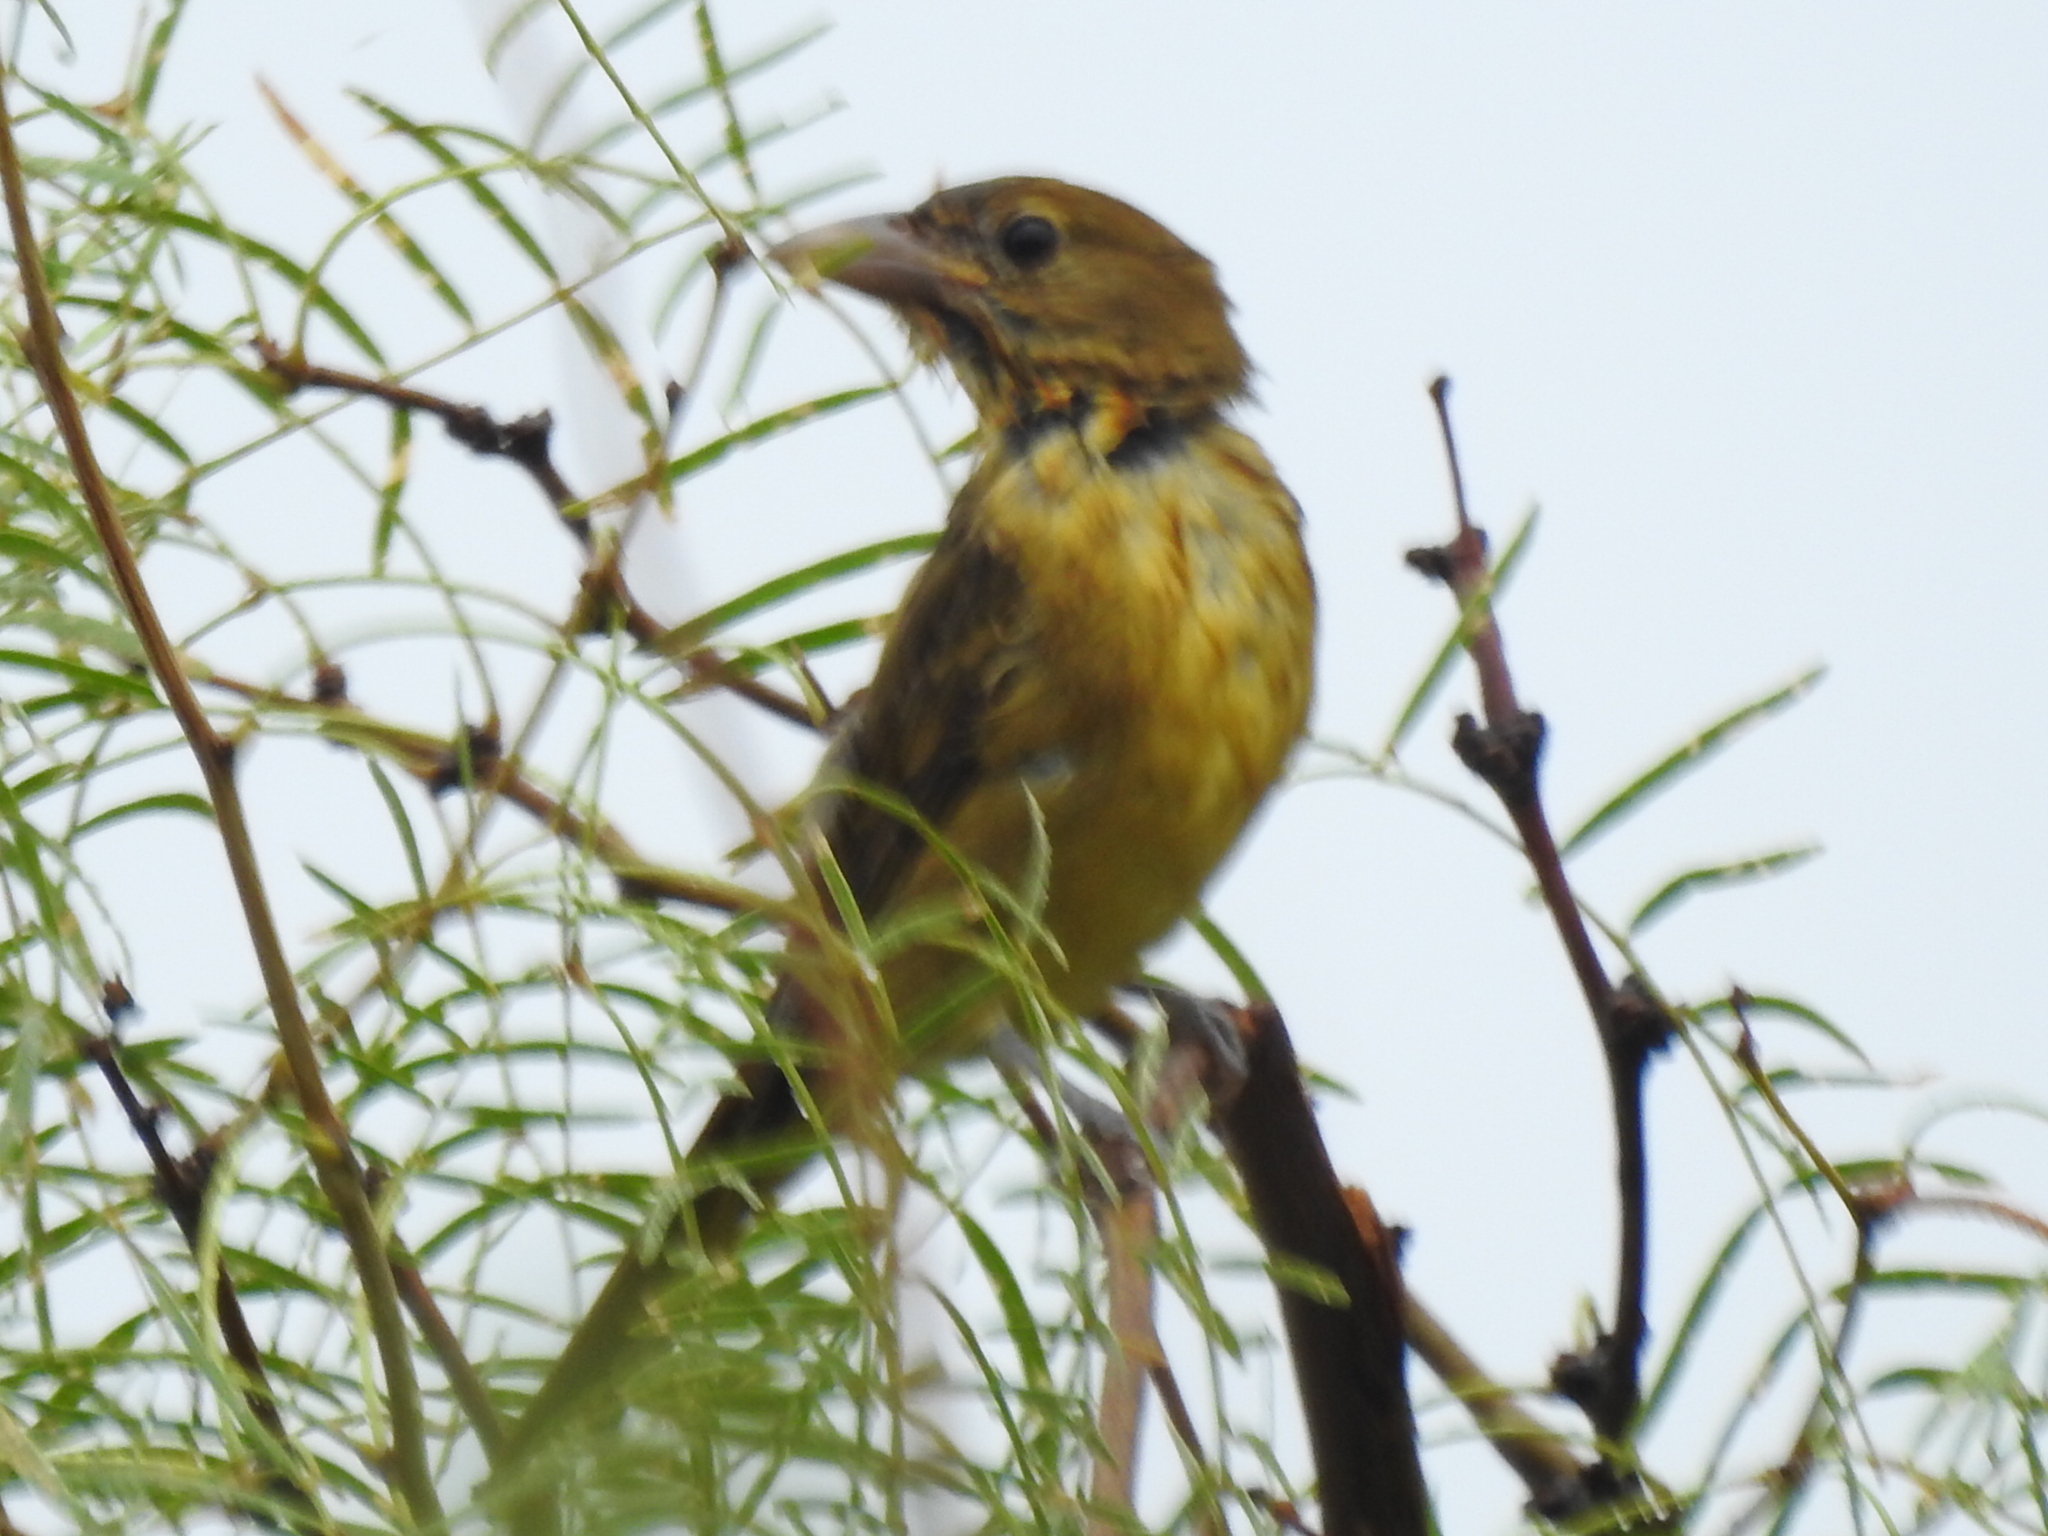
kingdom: Animalia
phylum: Chordata
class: Aves
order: Passeriformes
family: Cardinalidae
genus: Piranga
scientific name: Piranga rubra
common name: Summer tanager
